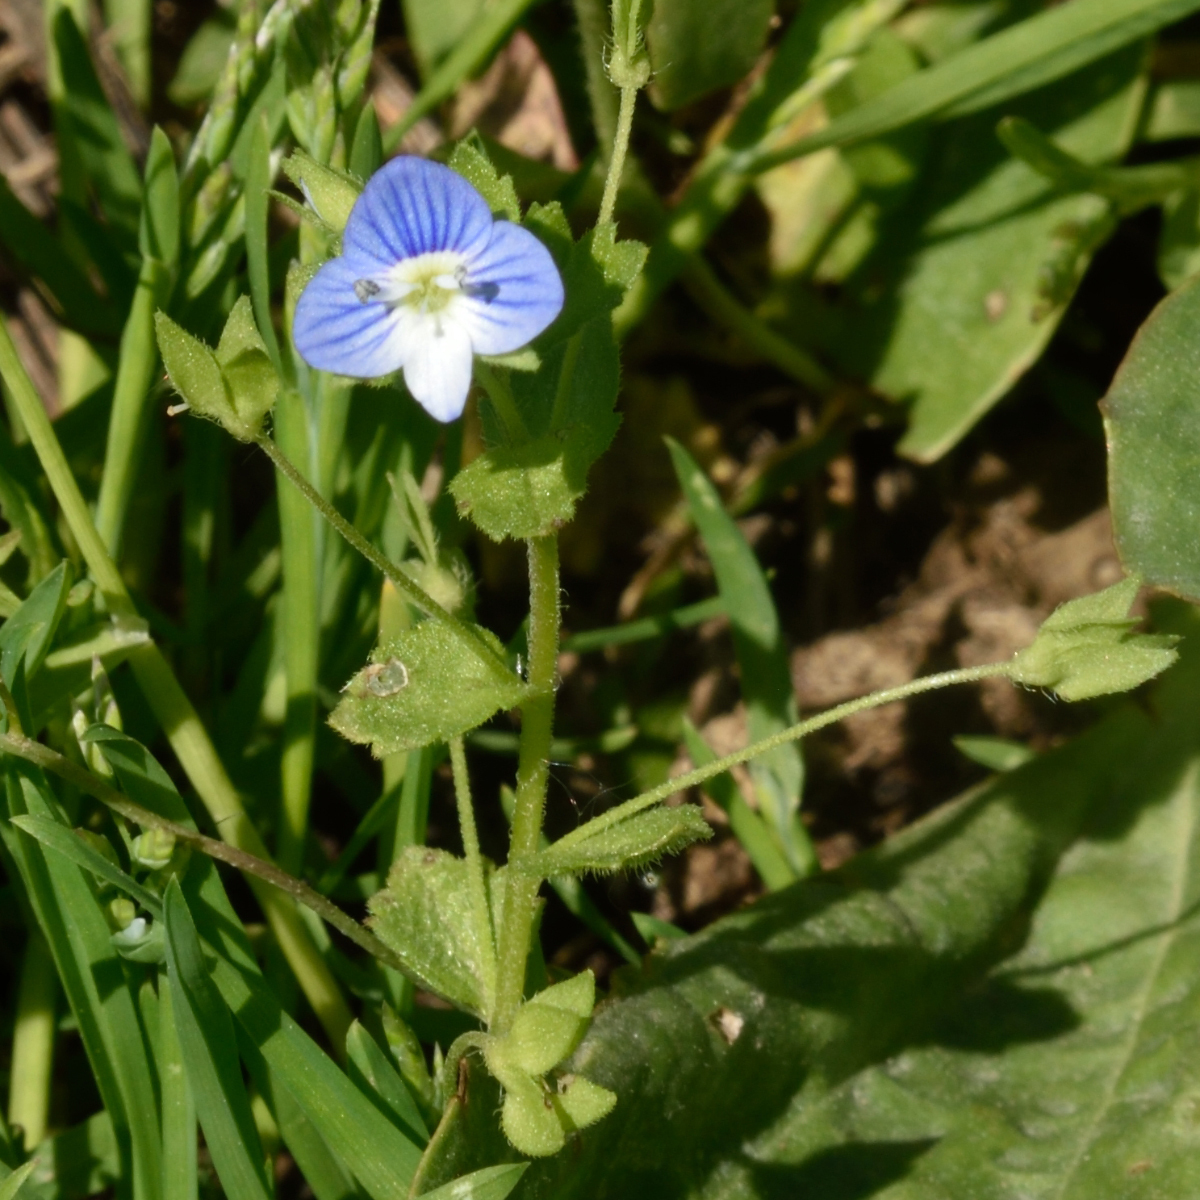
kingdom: Plantae
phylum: Tracheophyta
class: Magnoliopsida
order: Lamiales
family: Plantaginaceae
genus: Veronica
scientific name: Veronica persica
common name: Common field-speedwell
